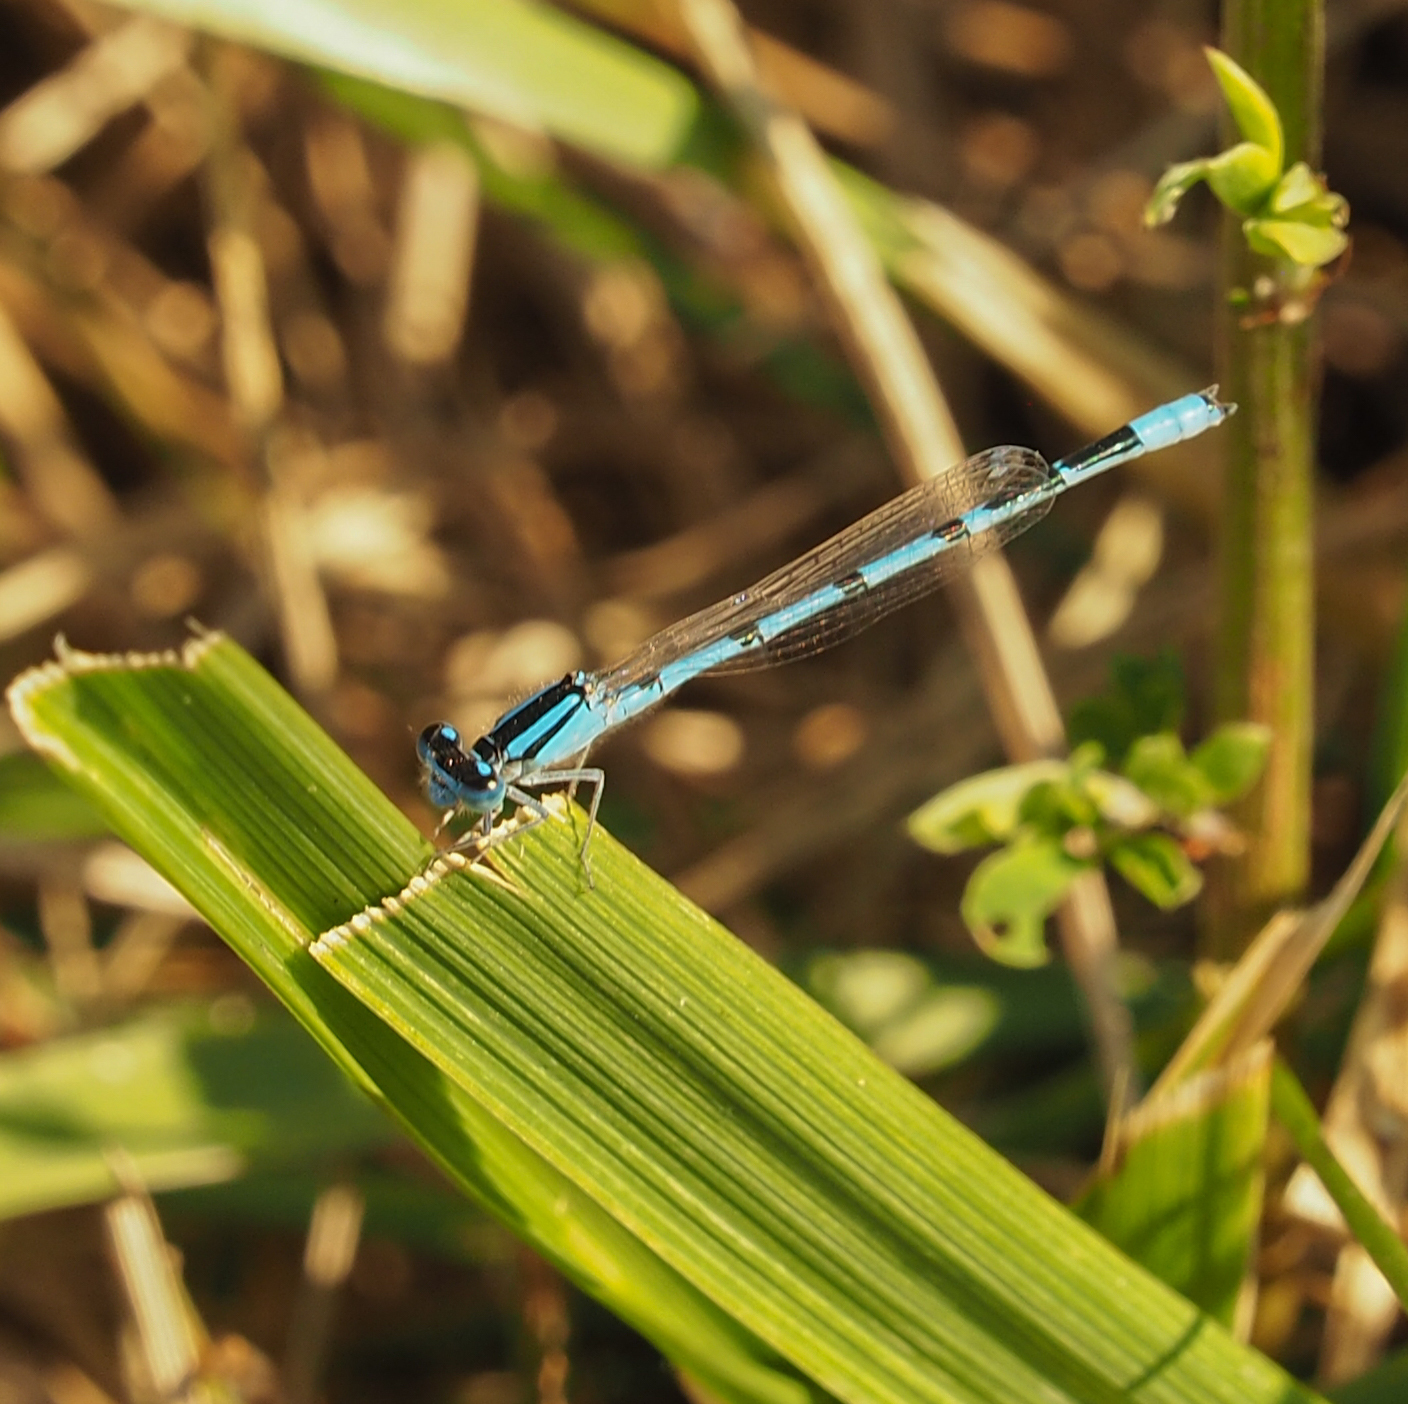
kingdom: Animalia
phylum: Arthropoda
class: Insecta
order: Odonata
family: Coenagrionidae
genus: Enallagma
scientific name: Enallagma civile
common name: Damselfly
